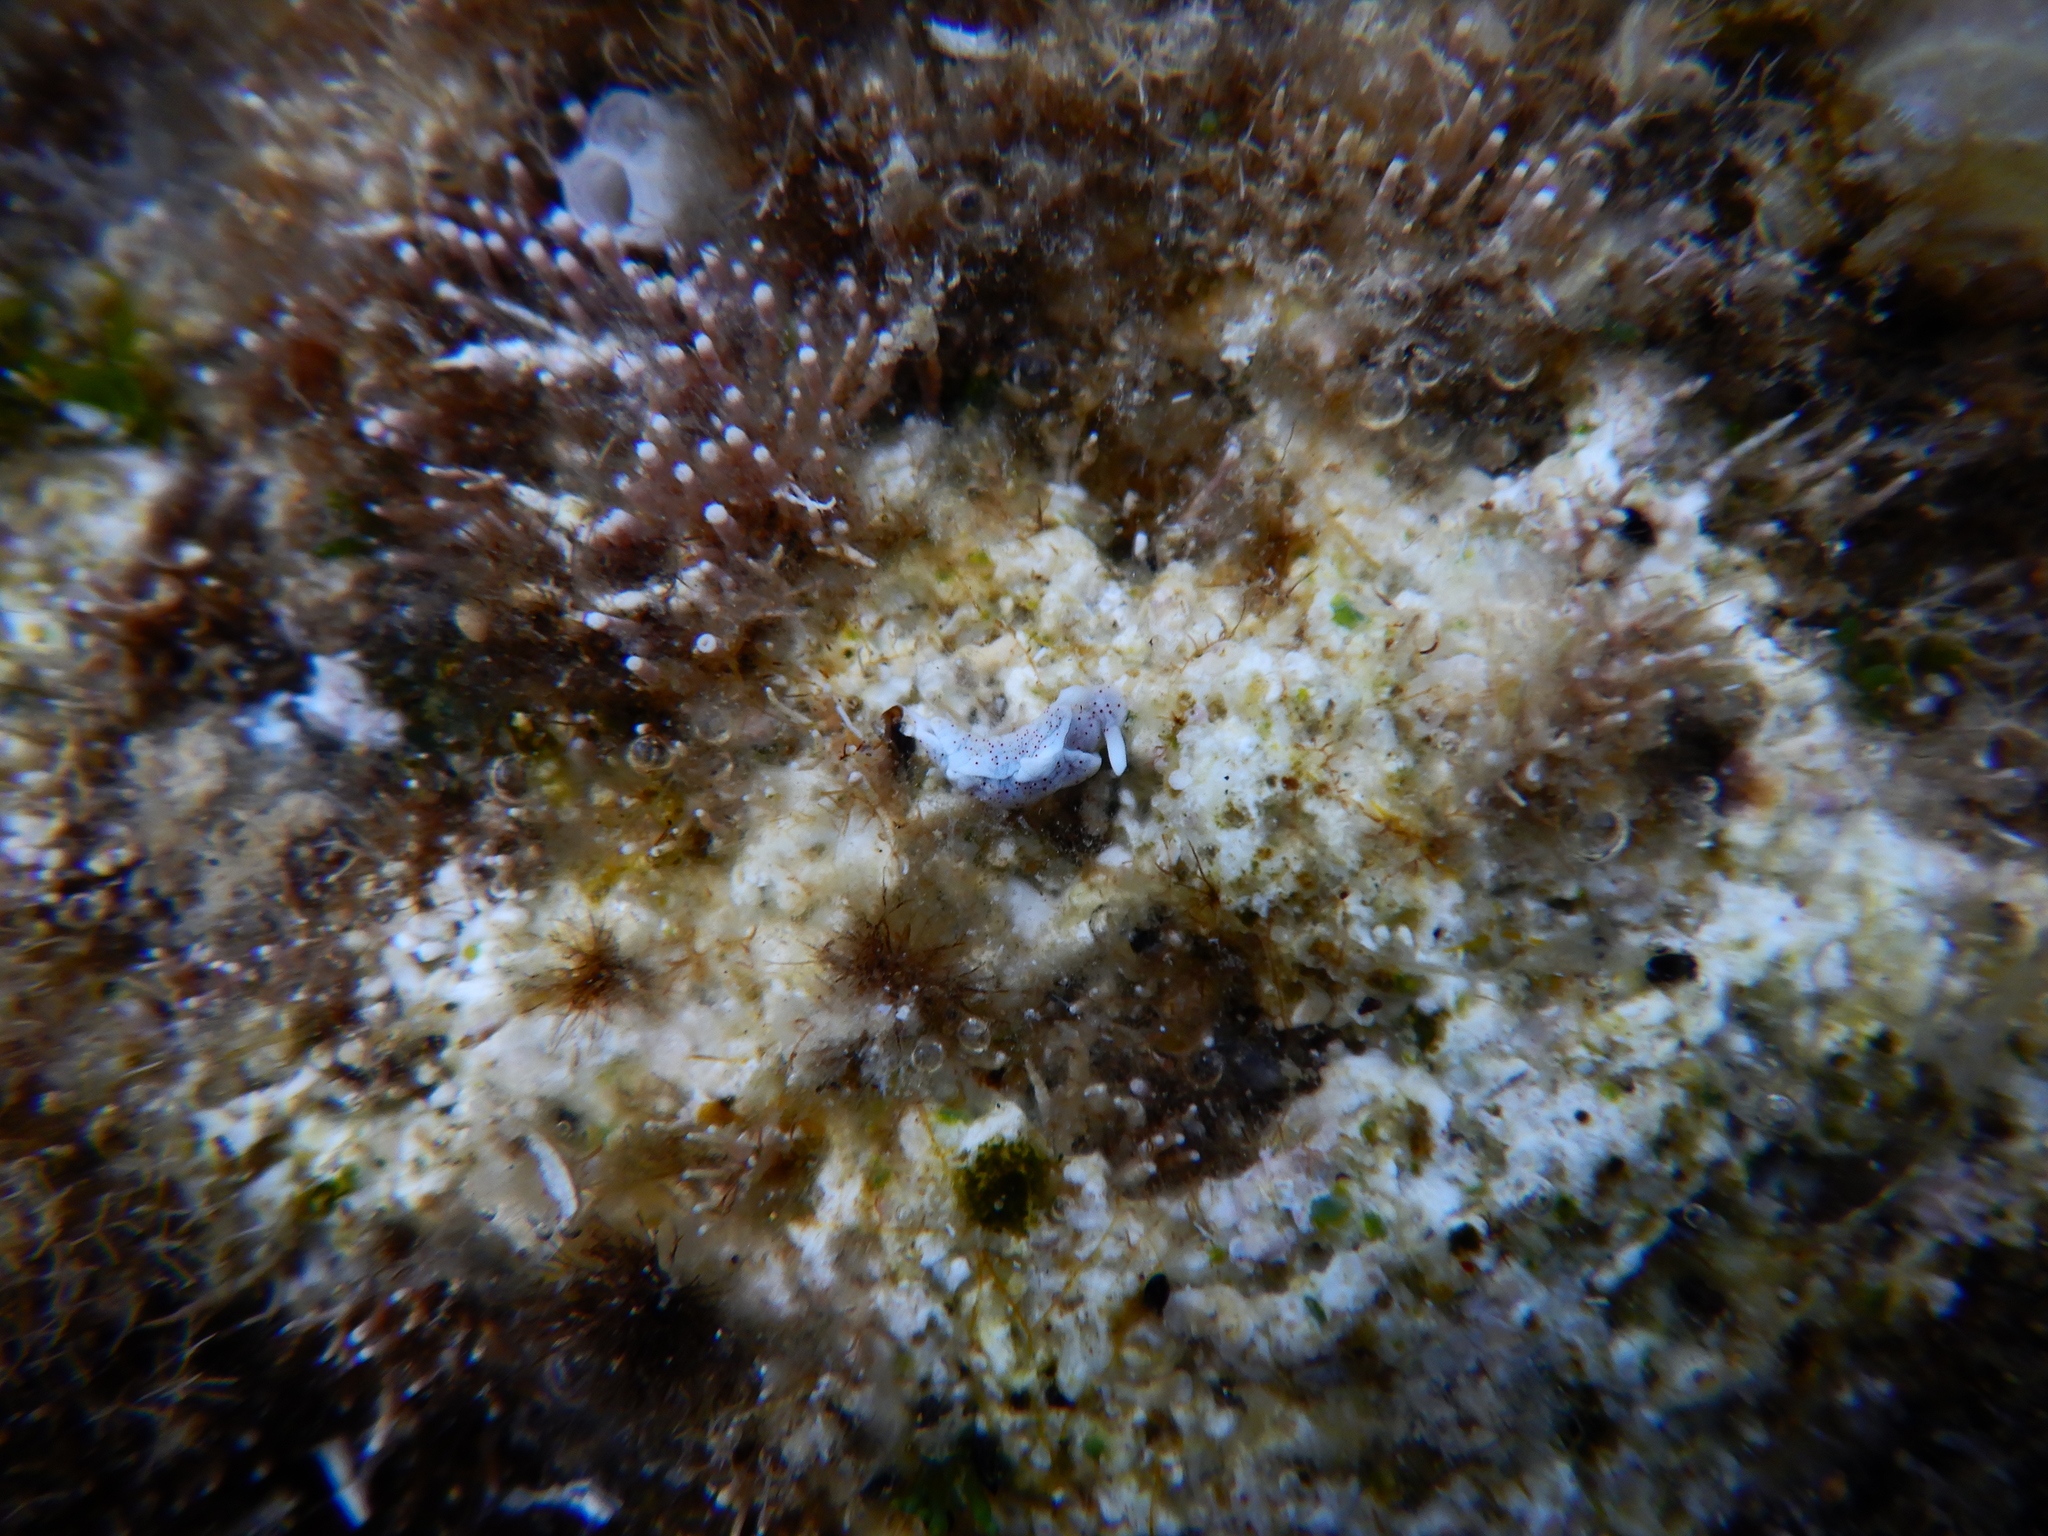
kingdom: Animalia
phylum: Mollusca
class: Gastropoda
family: Plakobranchidae
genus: Elysia
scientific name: Elysia timida
